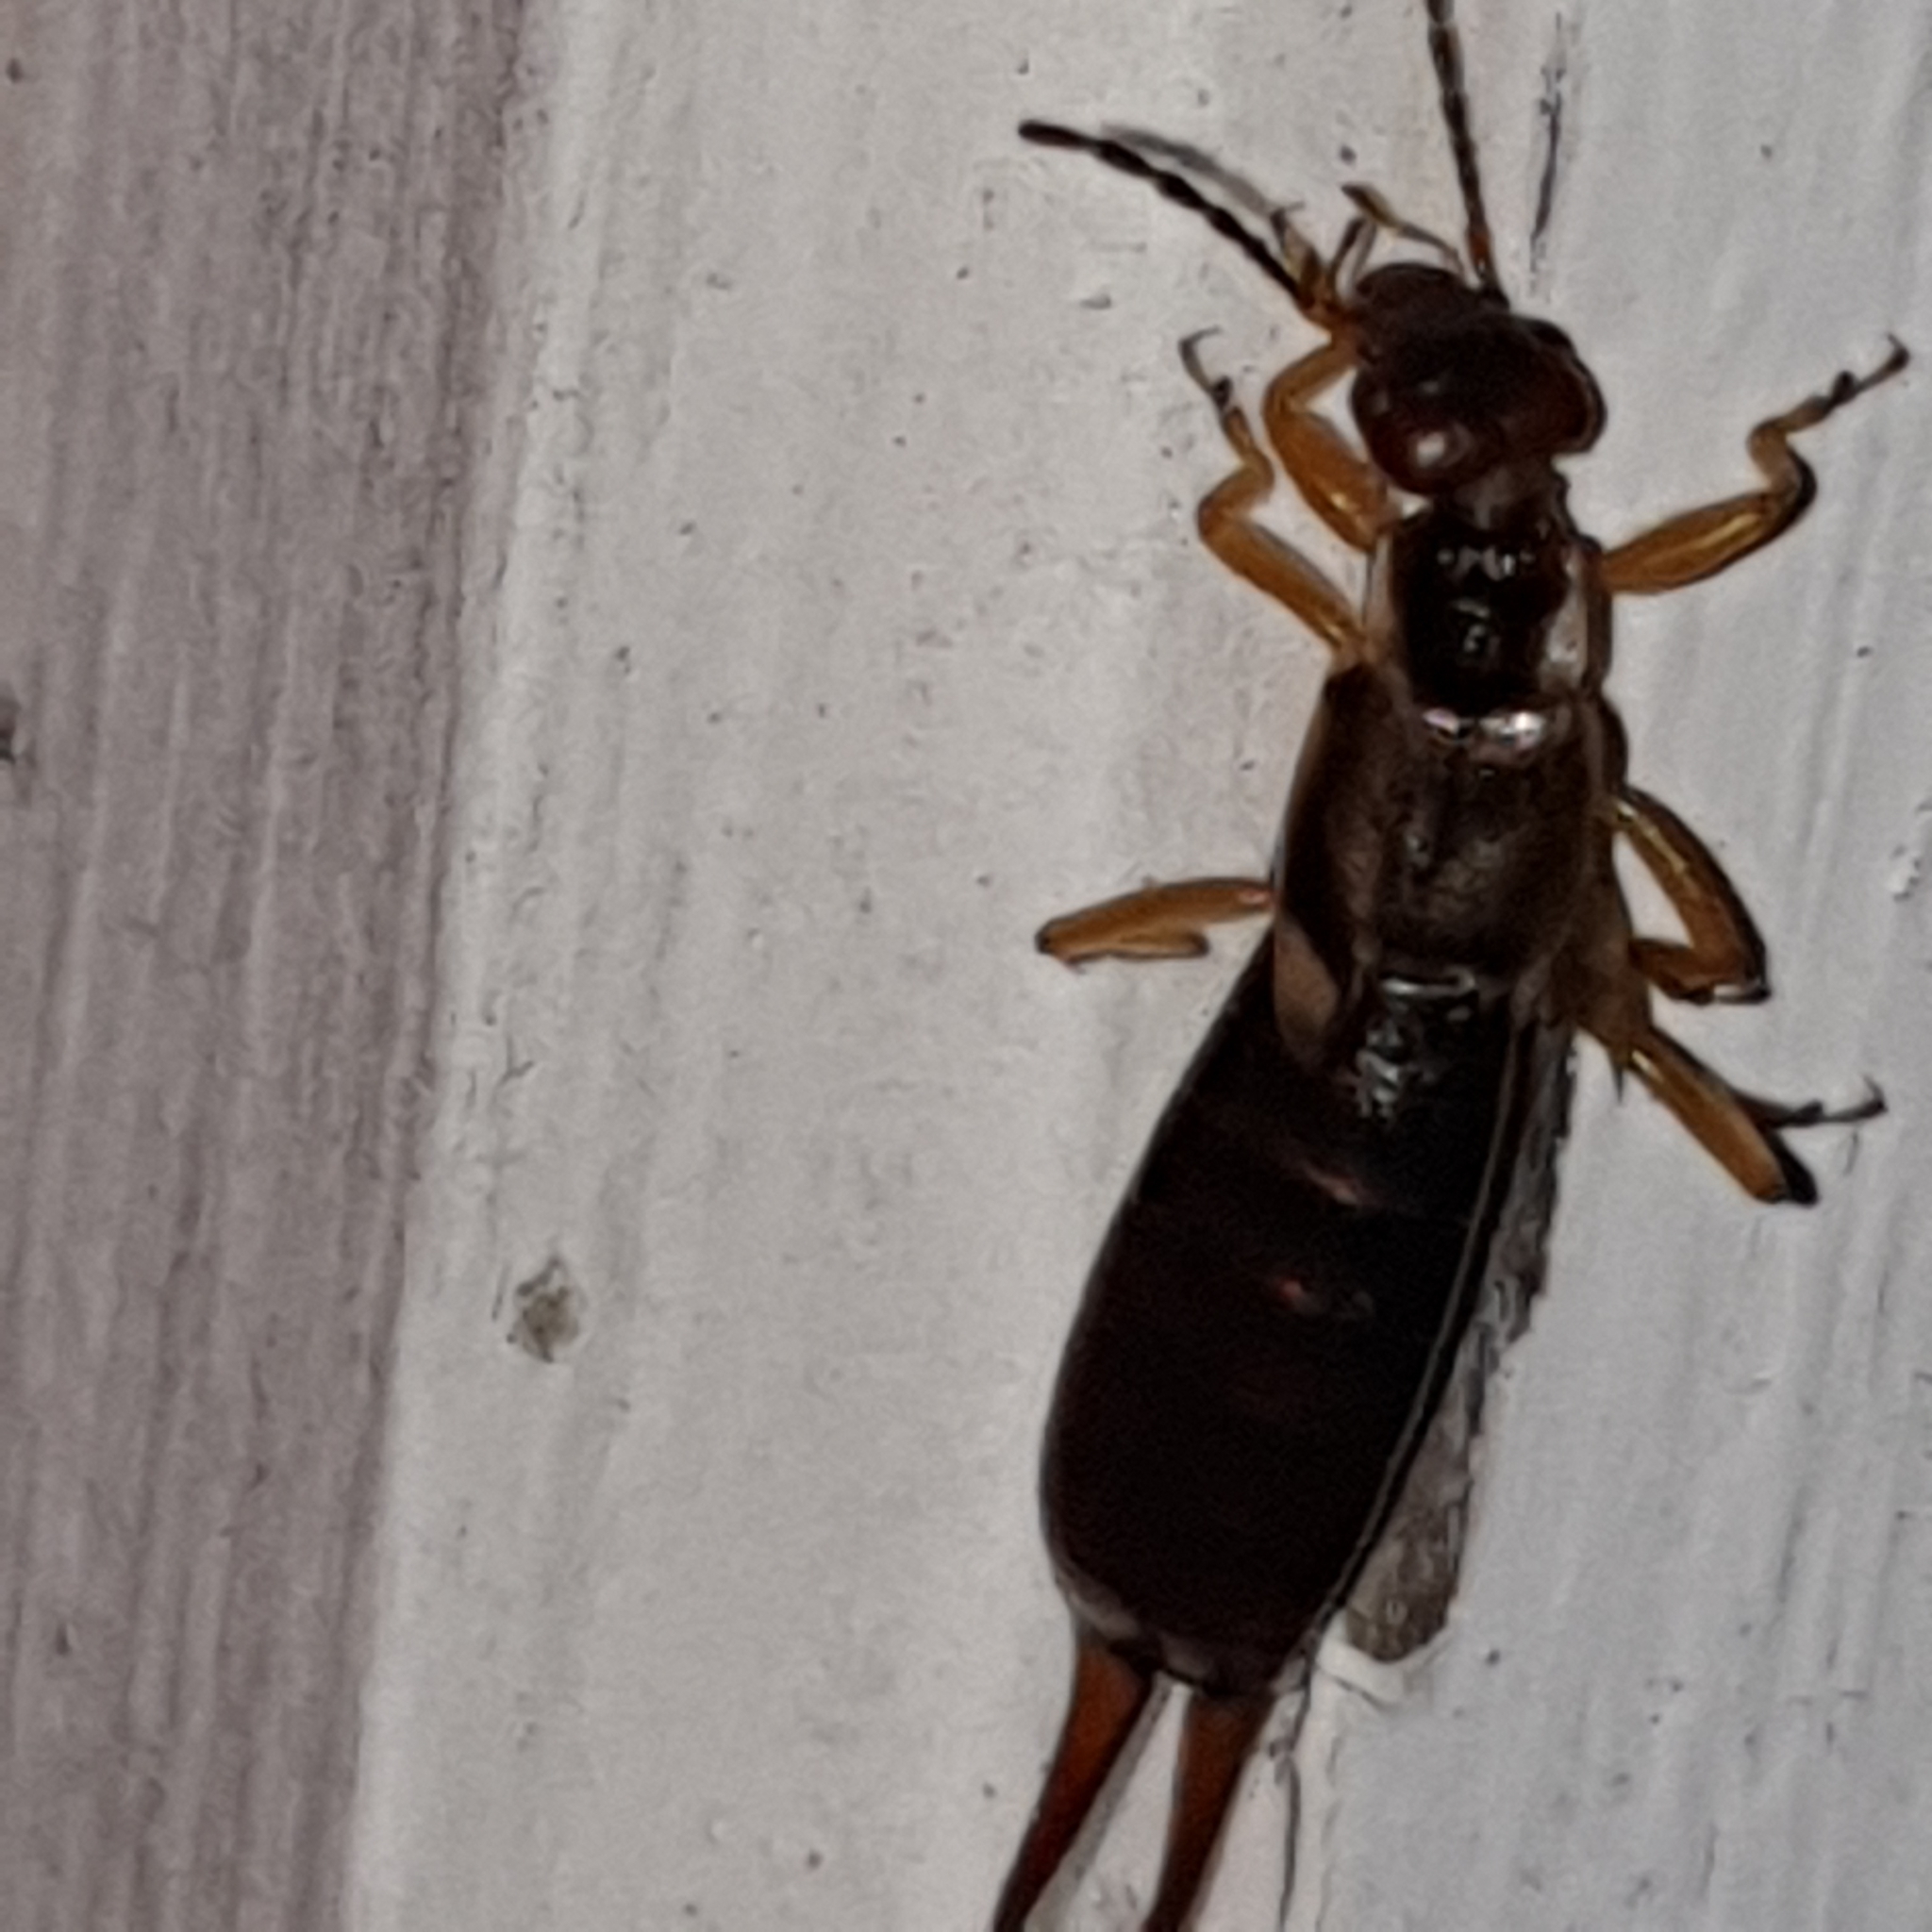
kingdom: Animalia
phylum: Arthropoda
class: Insecta
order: Dermaptera
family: Forficulidae
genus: Forficula
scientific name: Forficula
